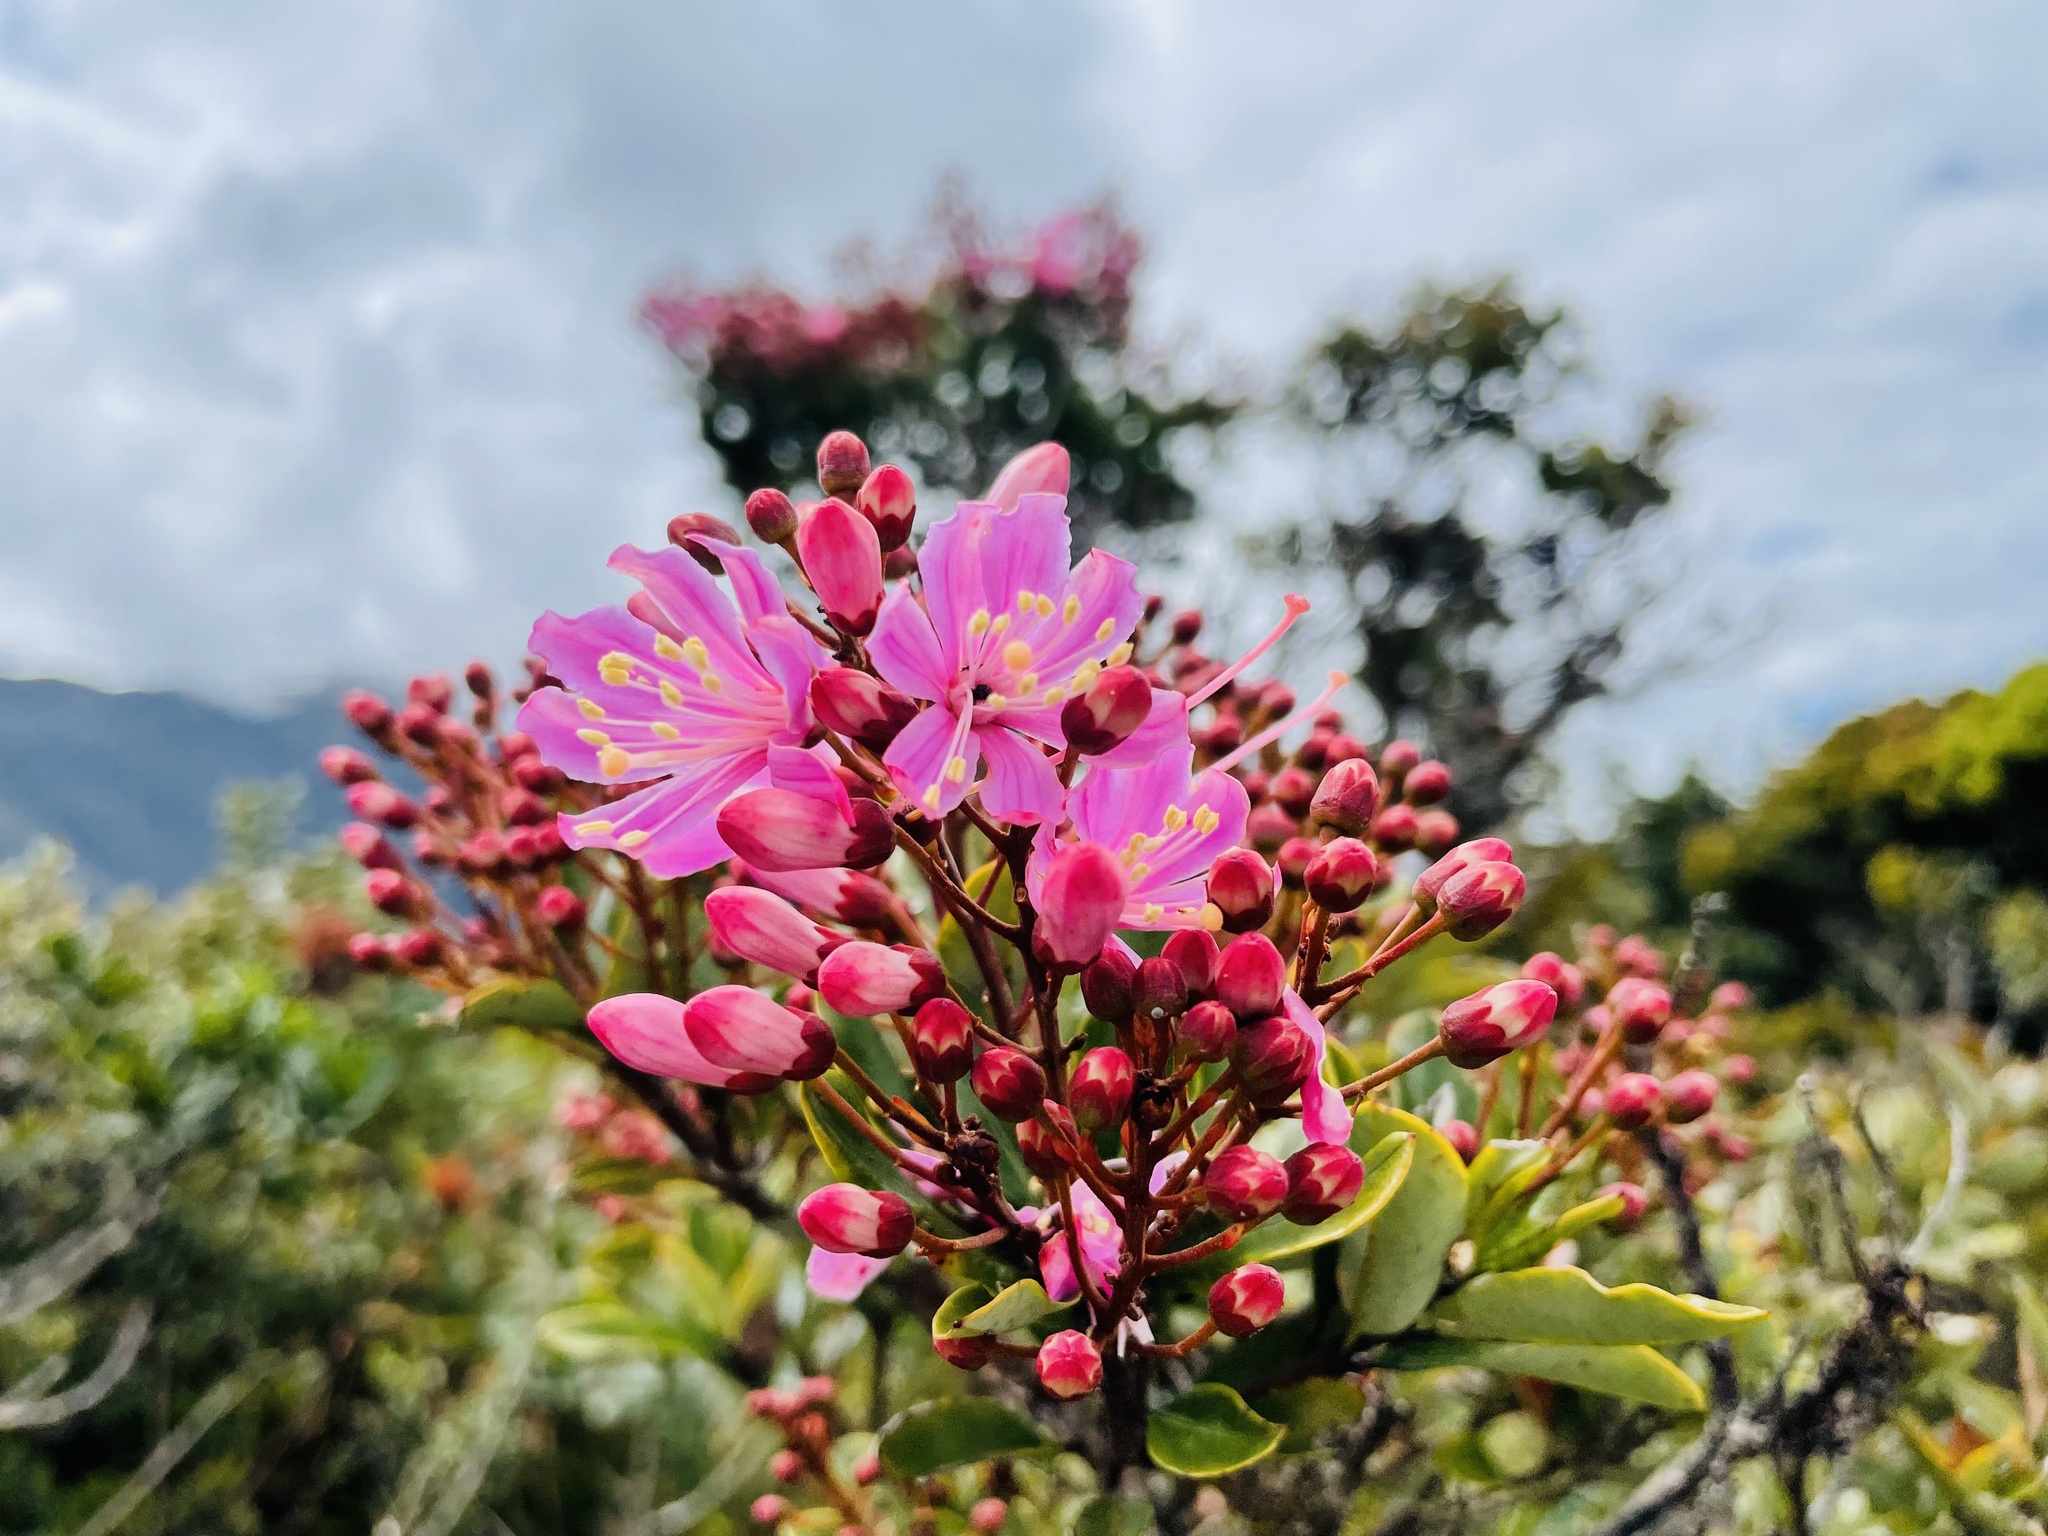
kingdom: Plantae
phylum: Tracheophyta
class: Magnoliopsida
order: Ericales
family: Ericaceae
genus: Bejaria
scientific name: Bejaria aestuans
